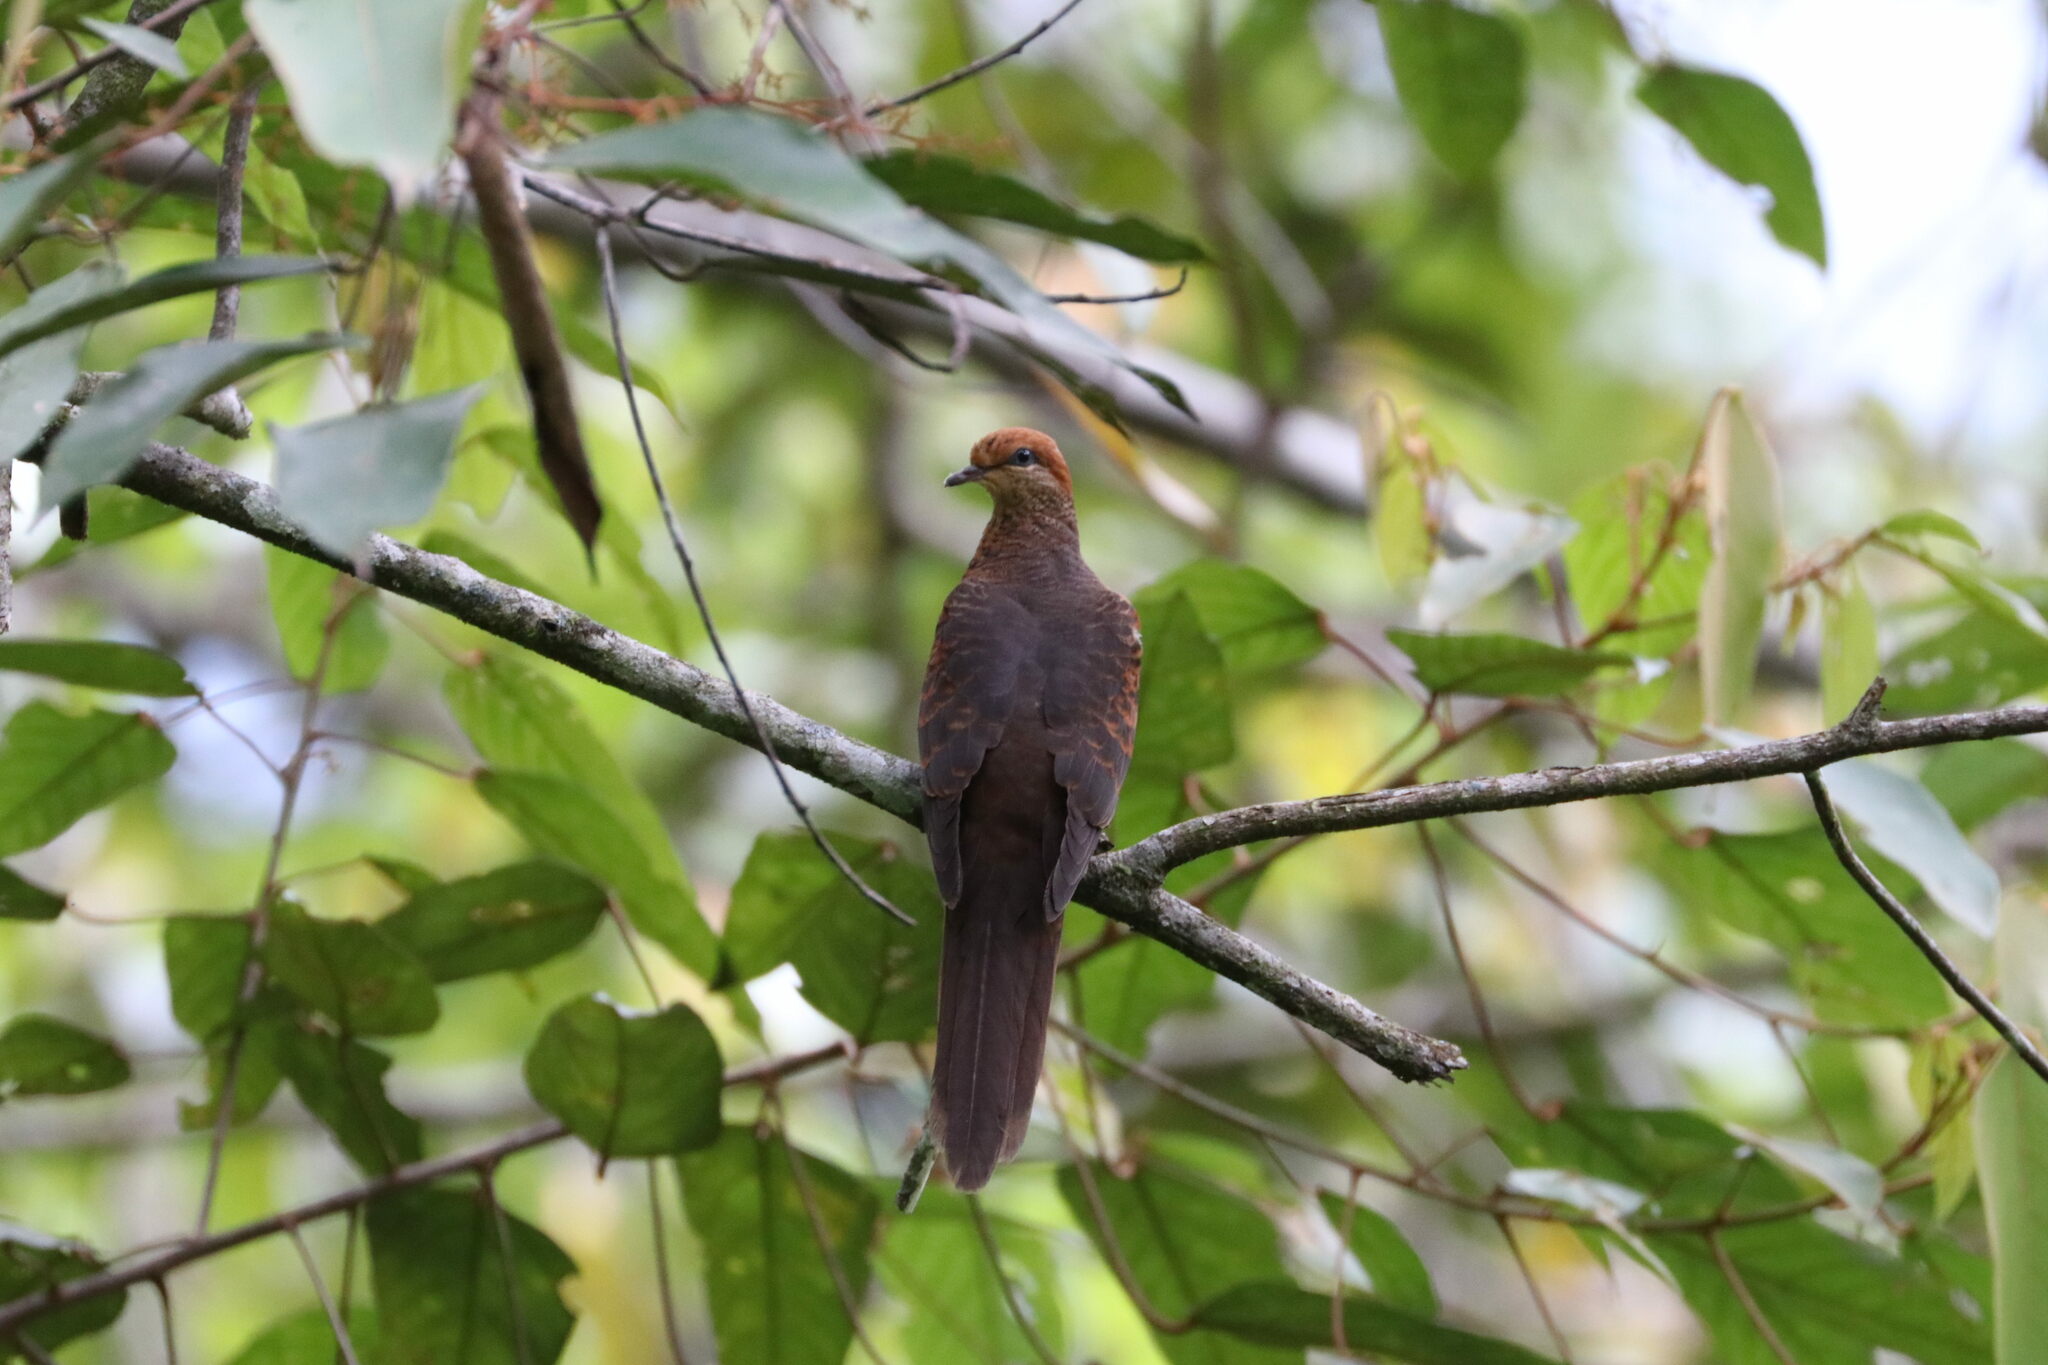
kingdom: Animalia
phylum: Chordata
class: Aves
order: Columbiformes
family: Columbidae
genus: Macropygia
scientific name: Macropygia ruficeps
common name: Little cuckoo-dove
